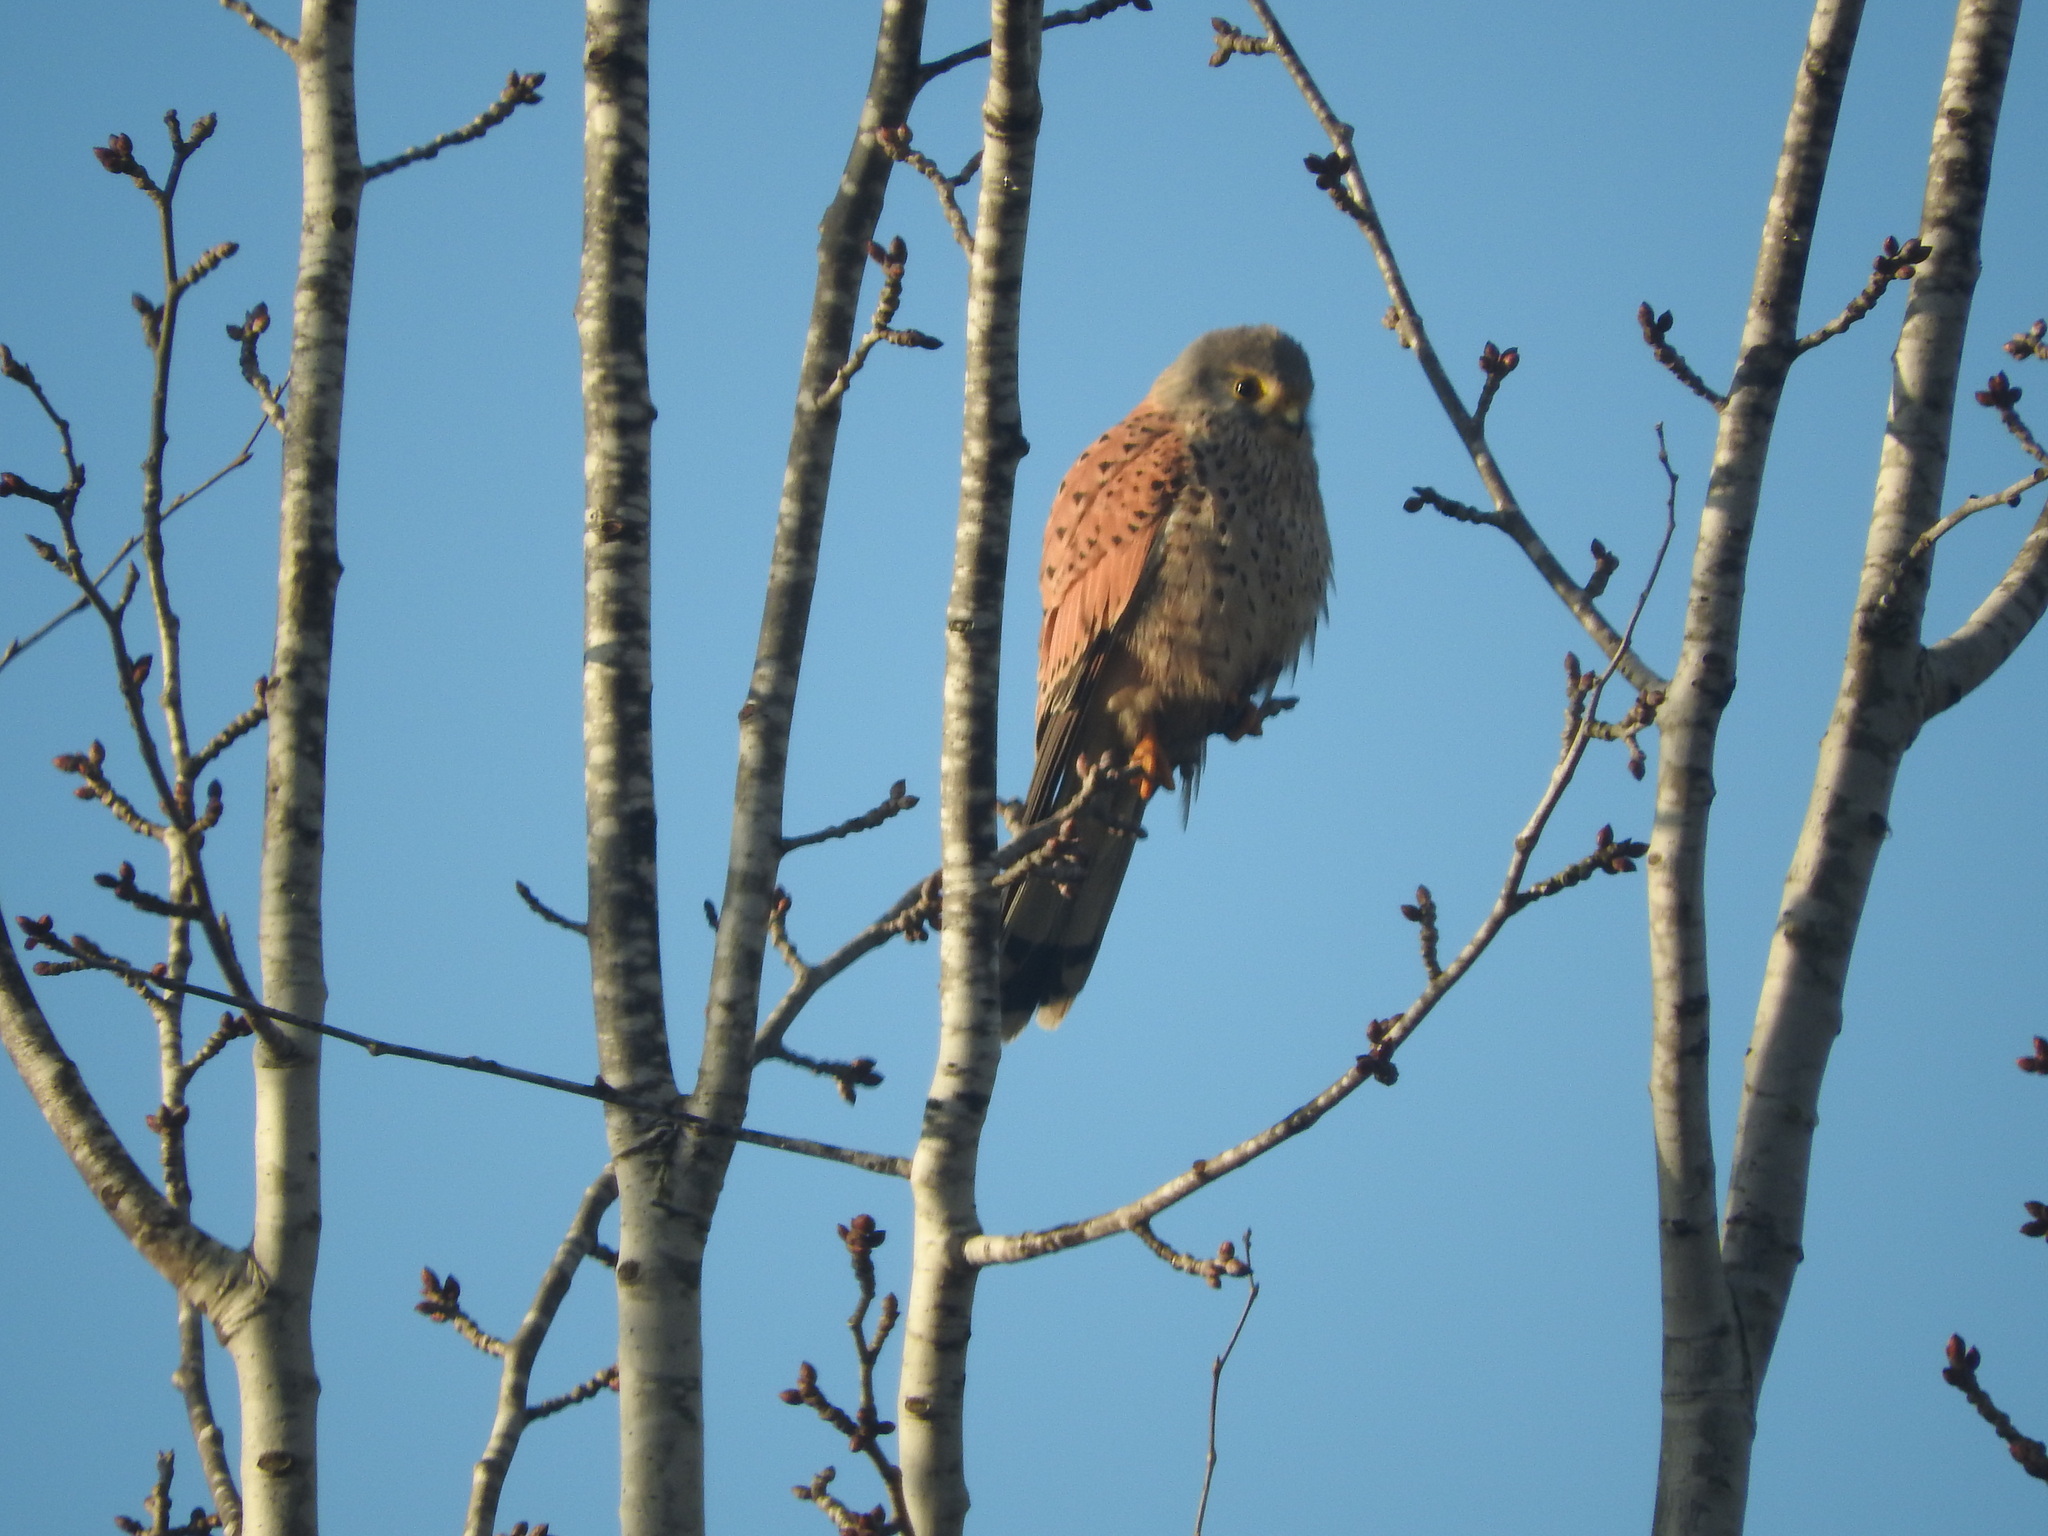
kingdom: Animalia
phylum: Chordata
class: Aves
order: Falconiformes
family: Falconidae
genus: Falco
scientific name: Falco tinnunculus
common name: Common kestrel
